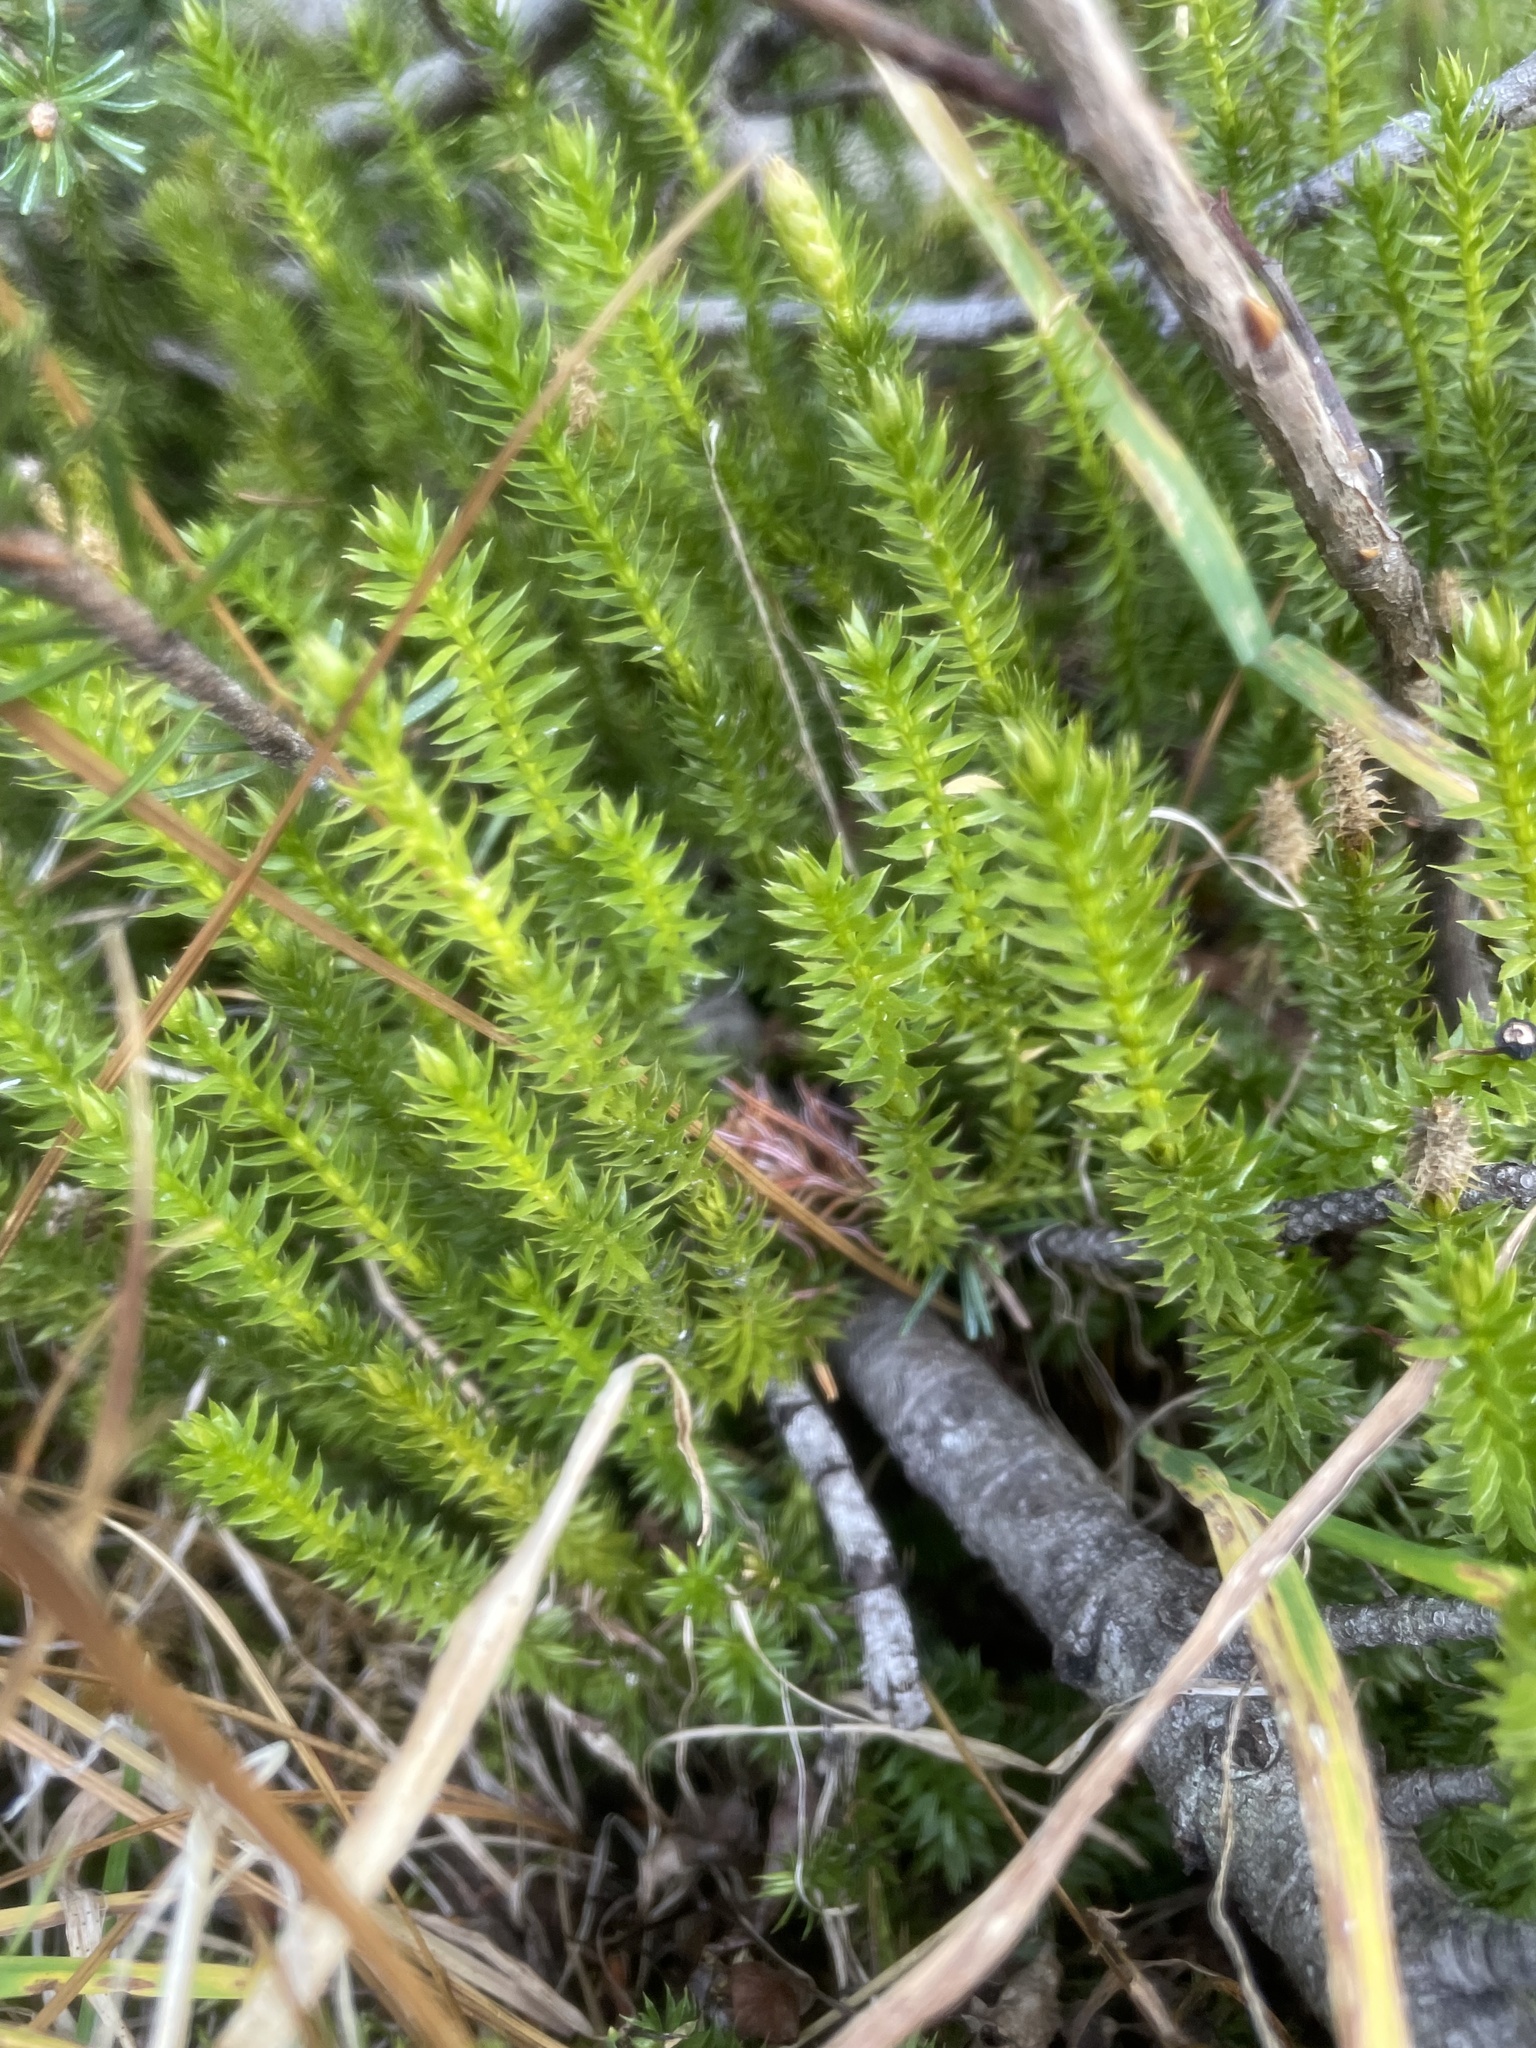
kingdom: Plantae
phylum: Tracheophyta
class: Lycopodiopsida
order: Lycopodiales
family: Lycopodiaceae
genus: Spinulum
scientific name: Spinulum annotinum
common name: Interrupted club-moss
